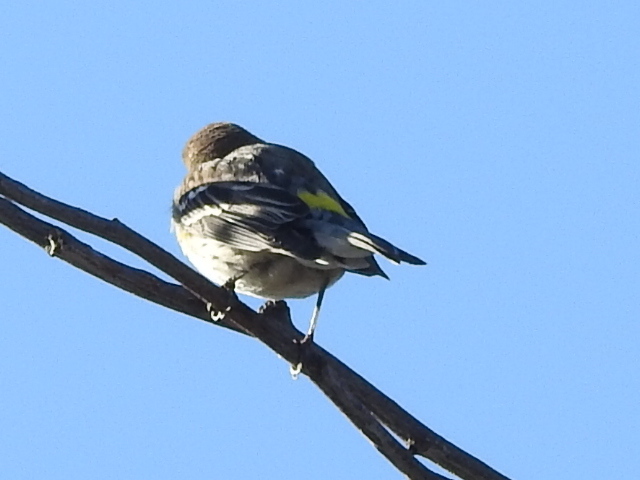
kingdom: Animalia
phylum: Chordata
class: Aves
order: Passeriformes
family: Parulidae
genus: Setophaga
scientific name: Setophaga coronata
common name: Myrtle warbler
